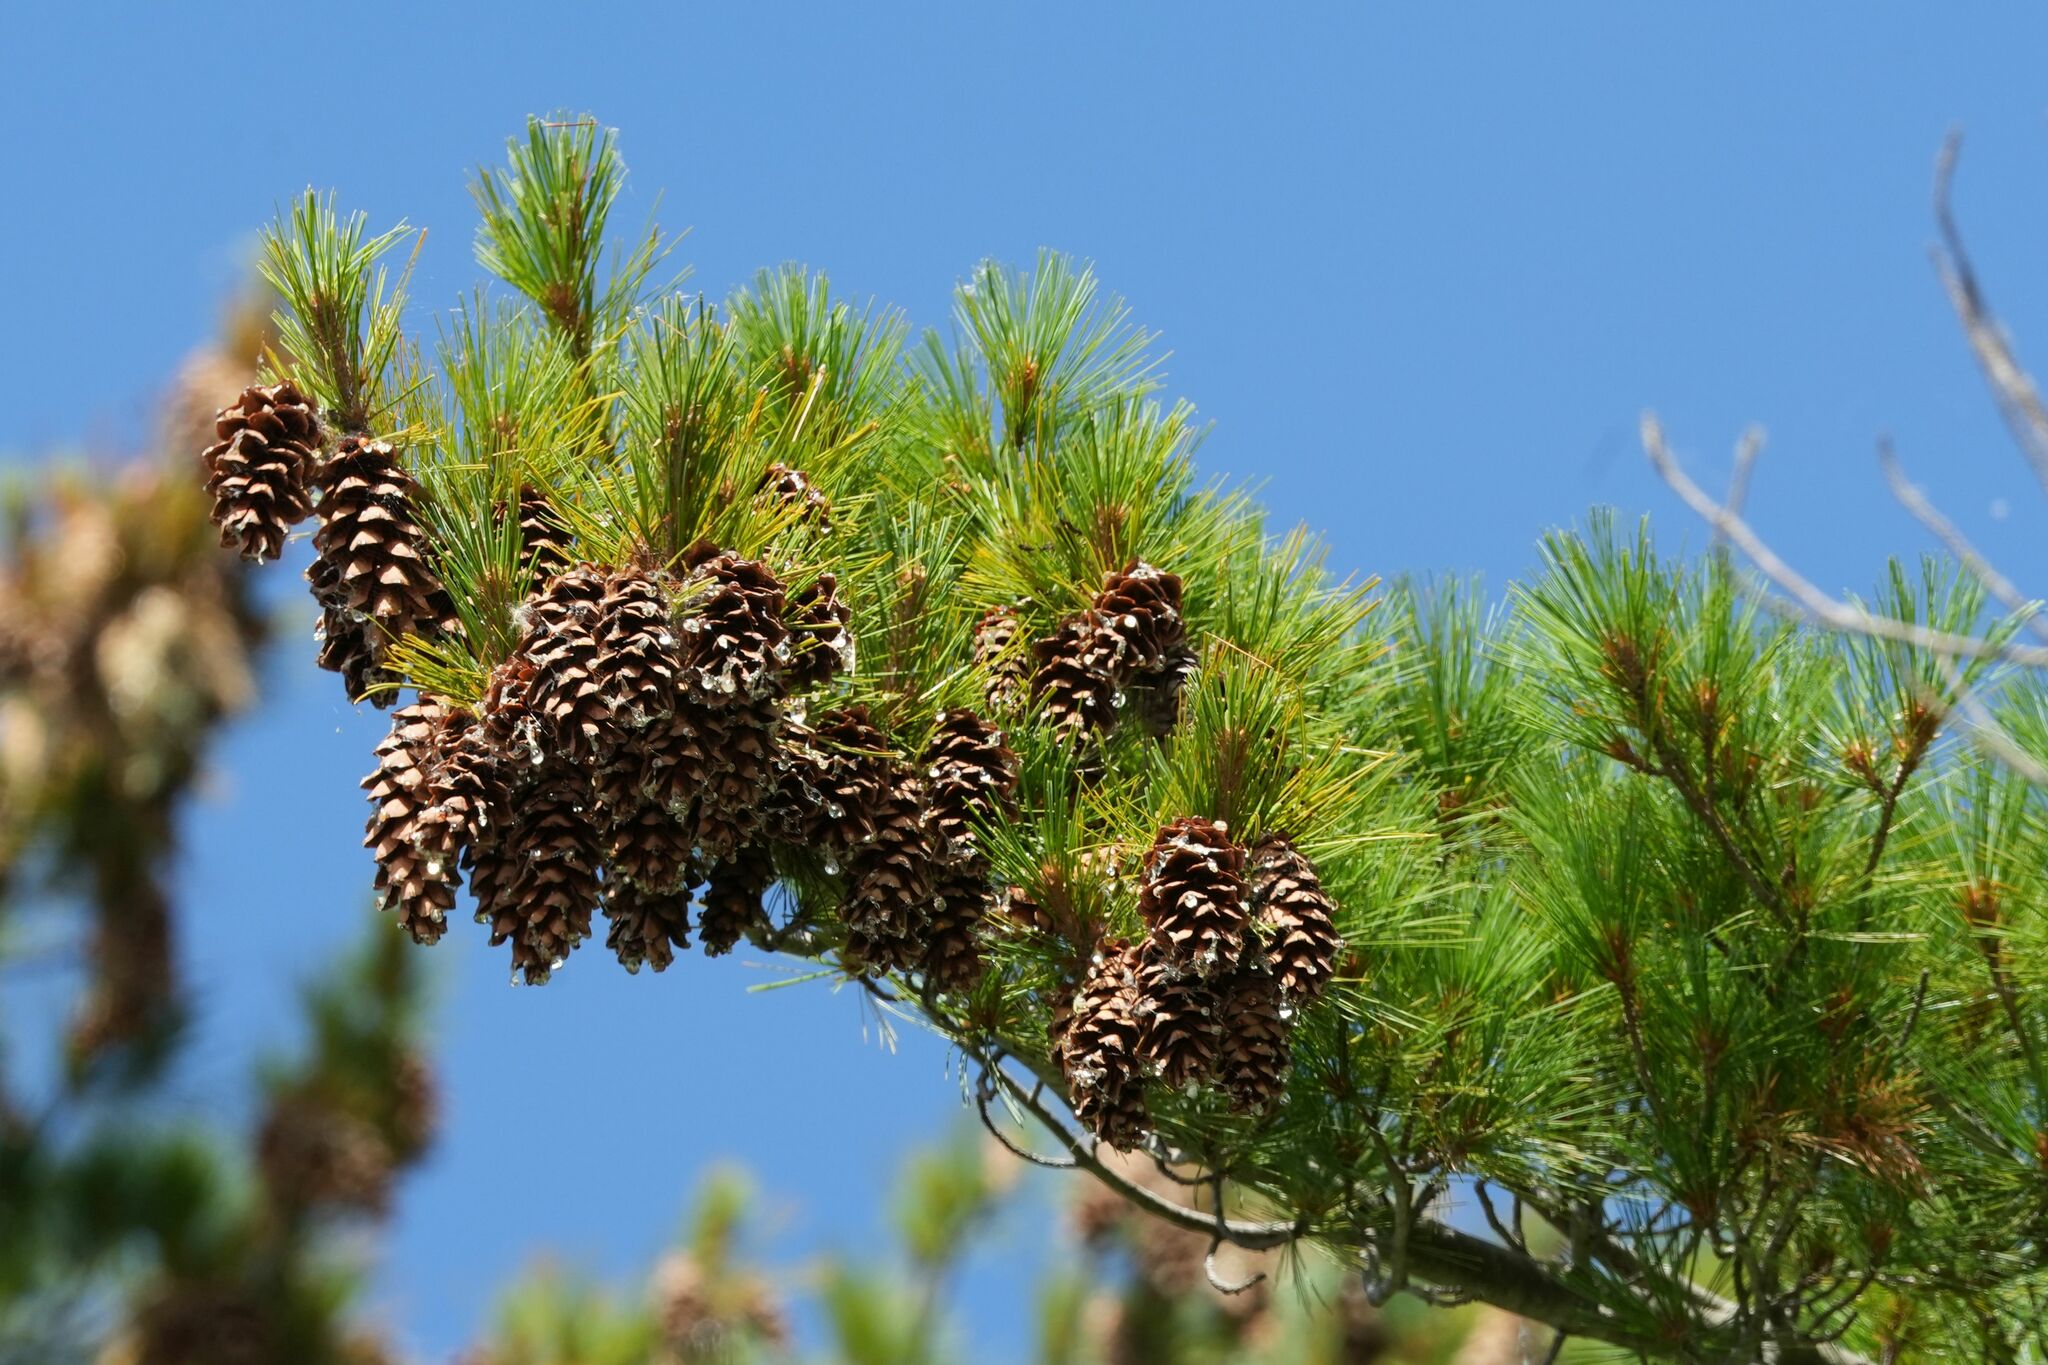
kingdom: Plantae
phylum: Tracheophyta
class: Pinopsida
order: Pinales
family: Pinaceae
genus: Pinus
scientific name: Pinus strobus
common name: Weymouth pine
